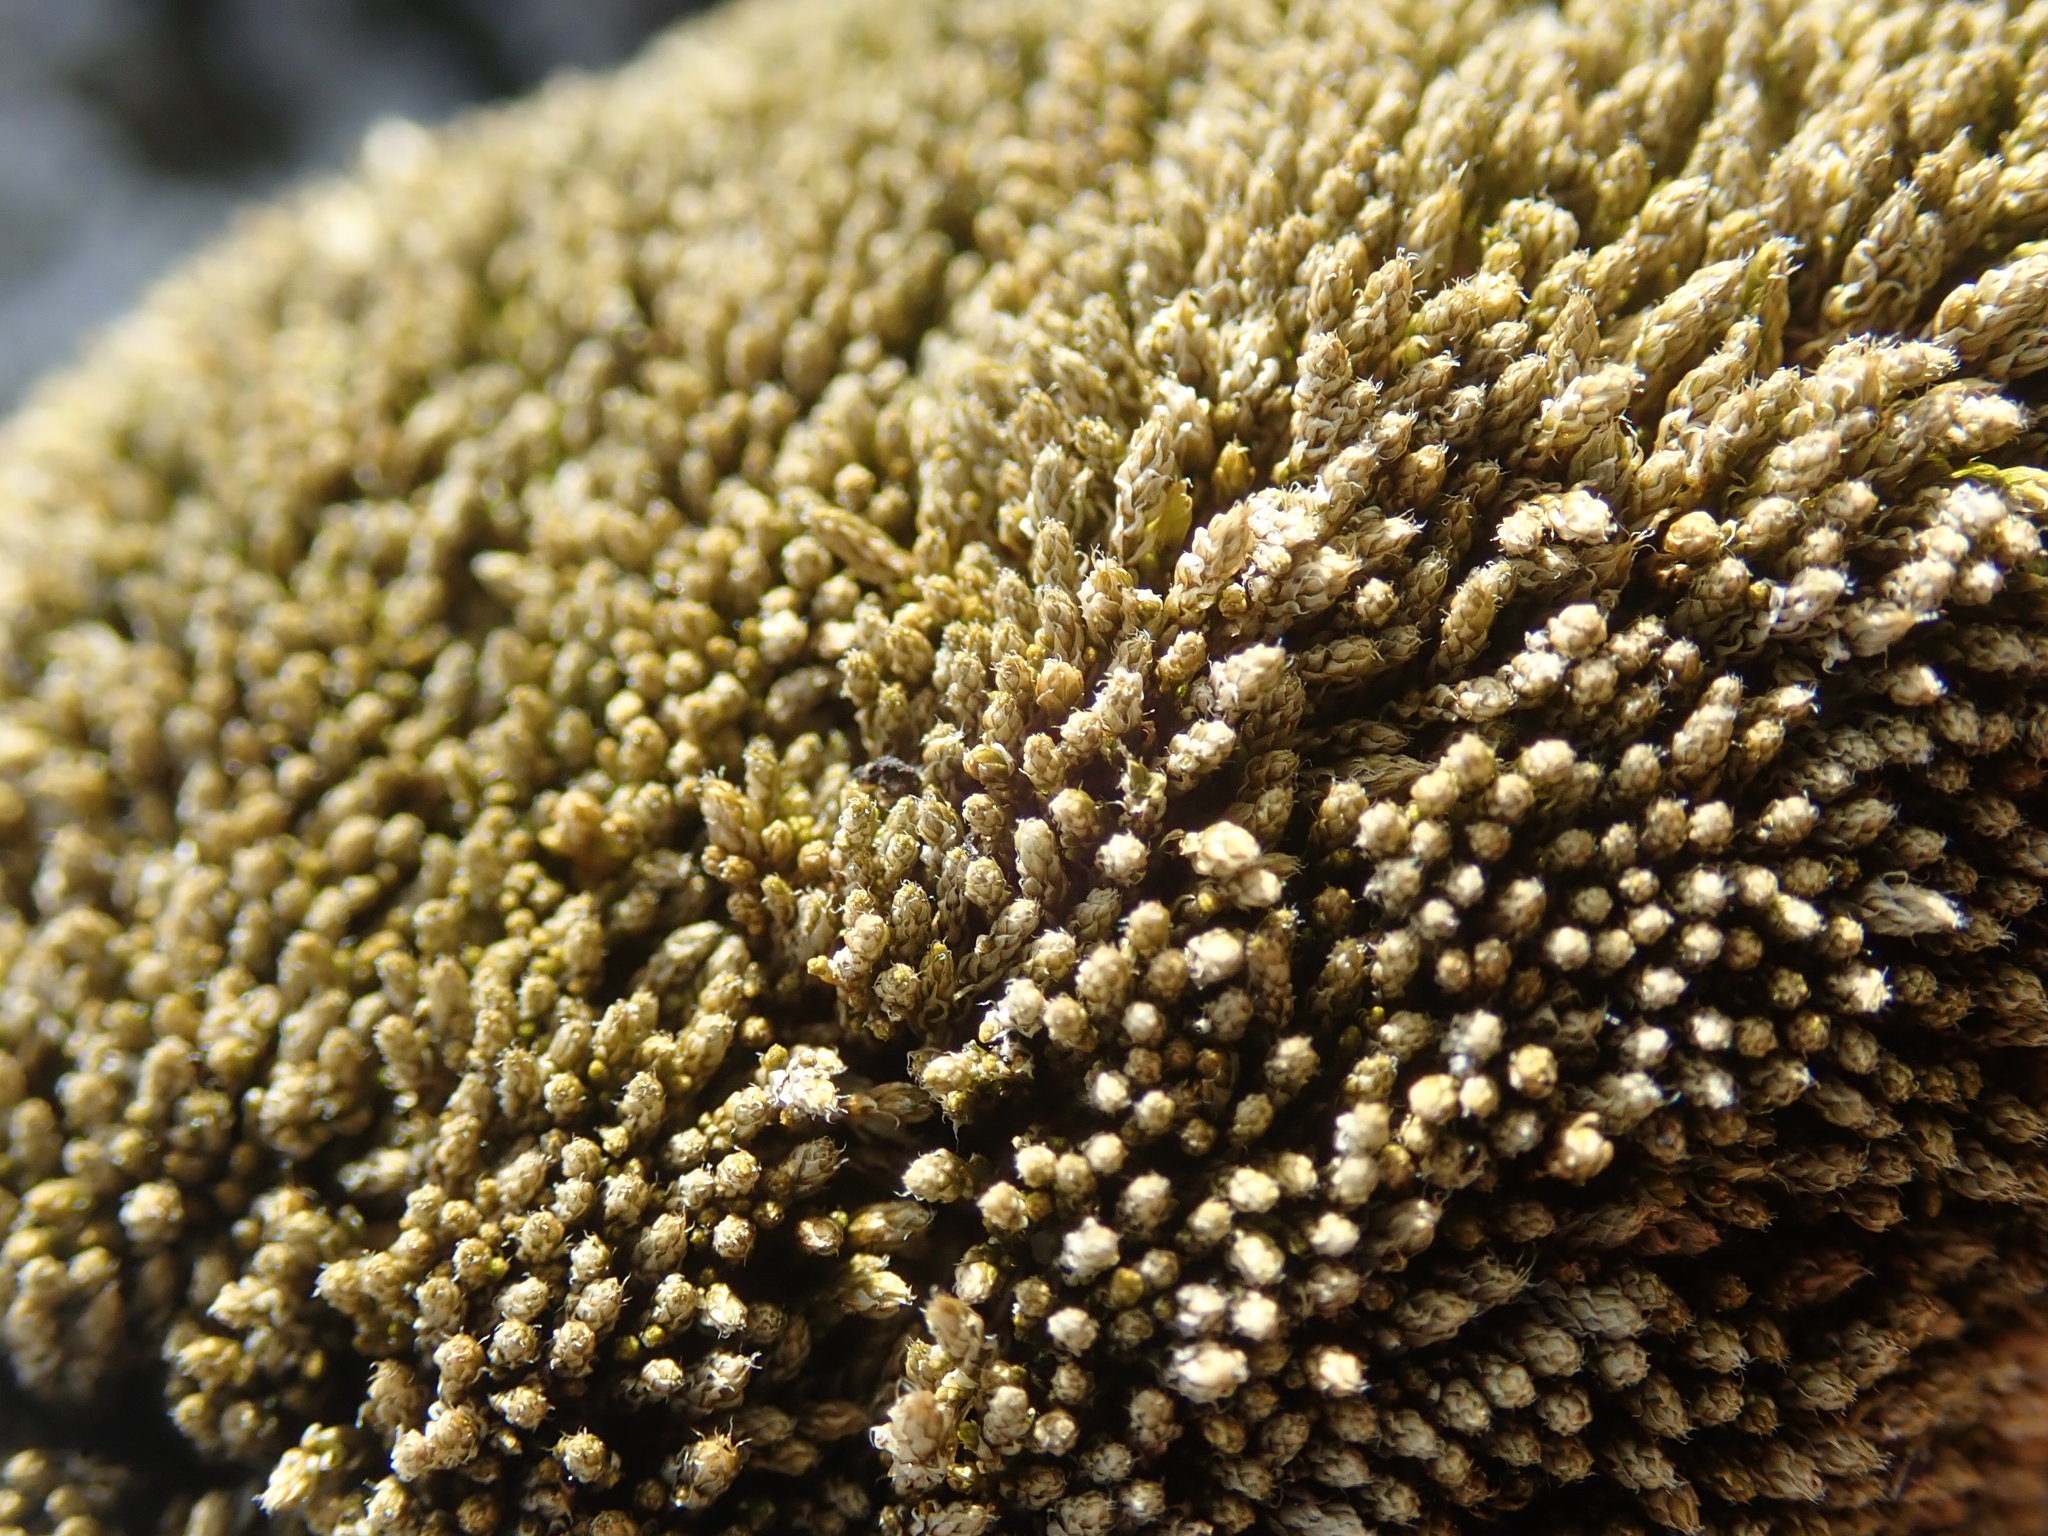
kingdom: Plantae
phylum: Bryophyta
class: Bryopsida
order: Bryales
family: Bryaceae
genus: Bryum
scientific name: Bryum argenteum
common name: Silver-moss
